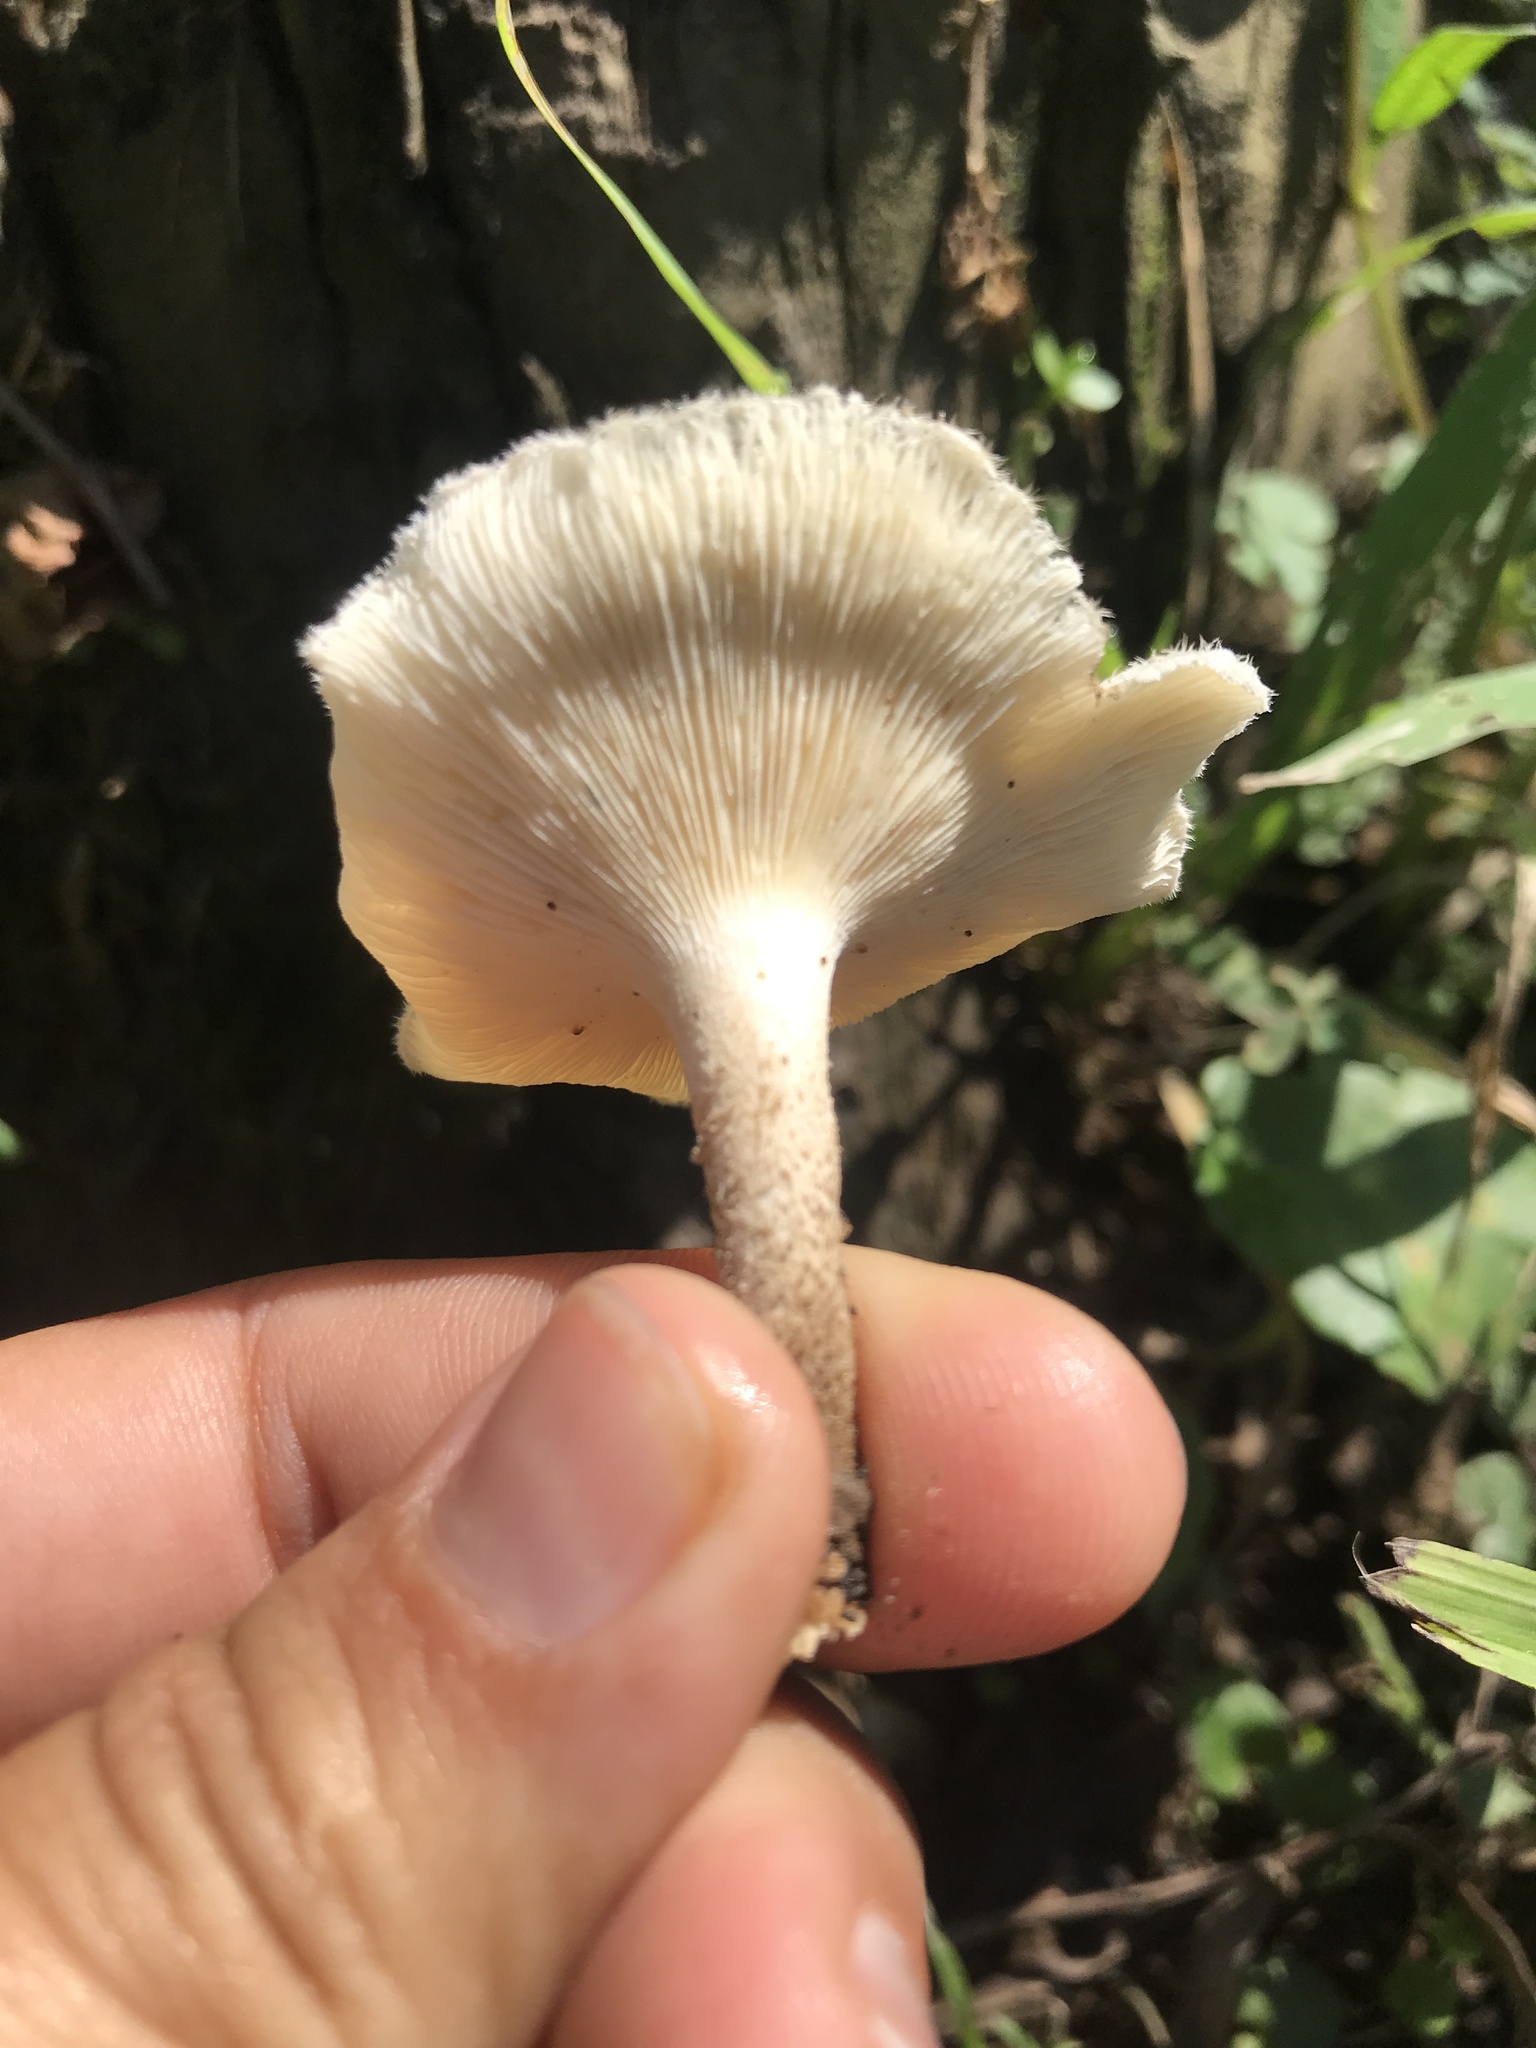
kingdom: Fungi
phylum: Basidiomycota
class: Agaricomycetes
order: Polyporales
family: Polyporaceae
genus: Lentinus
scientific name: Lentinus crinitus
